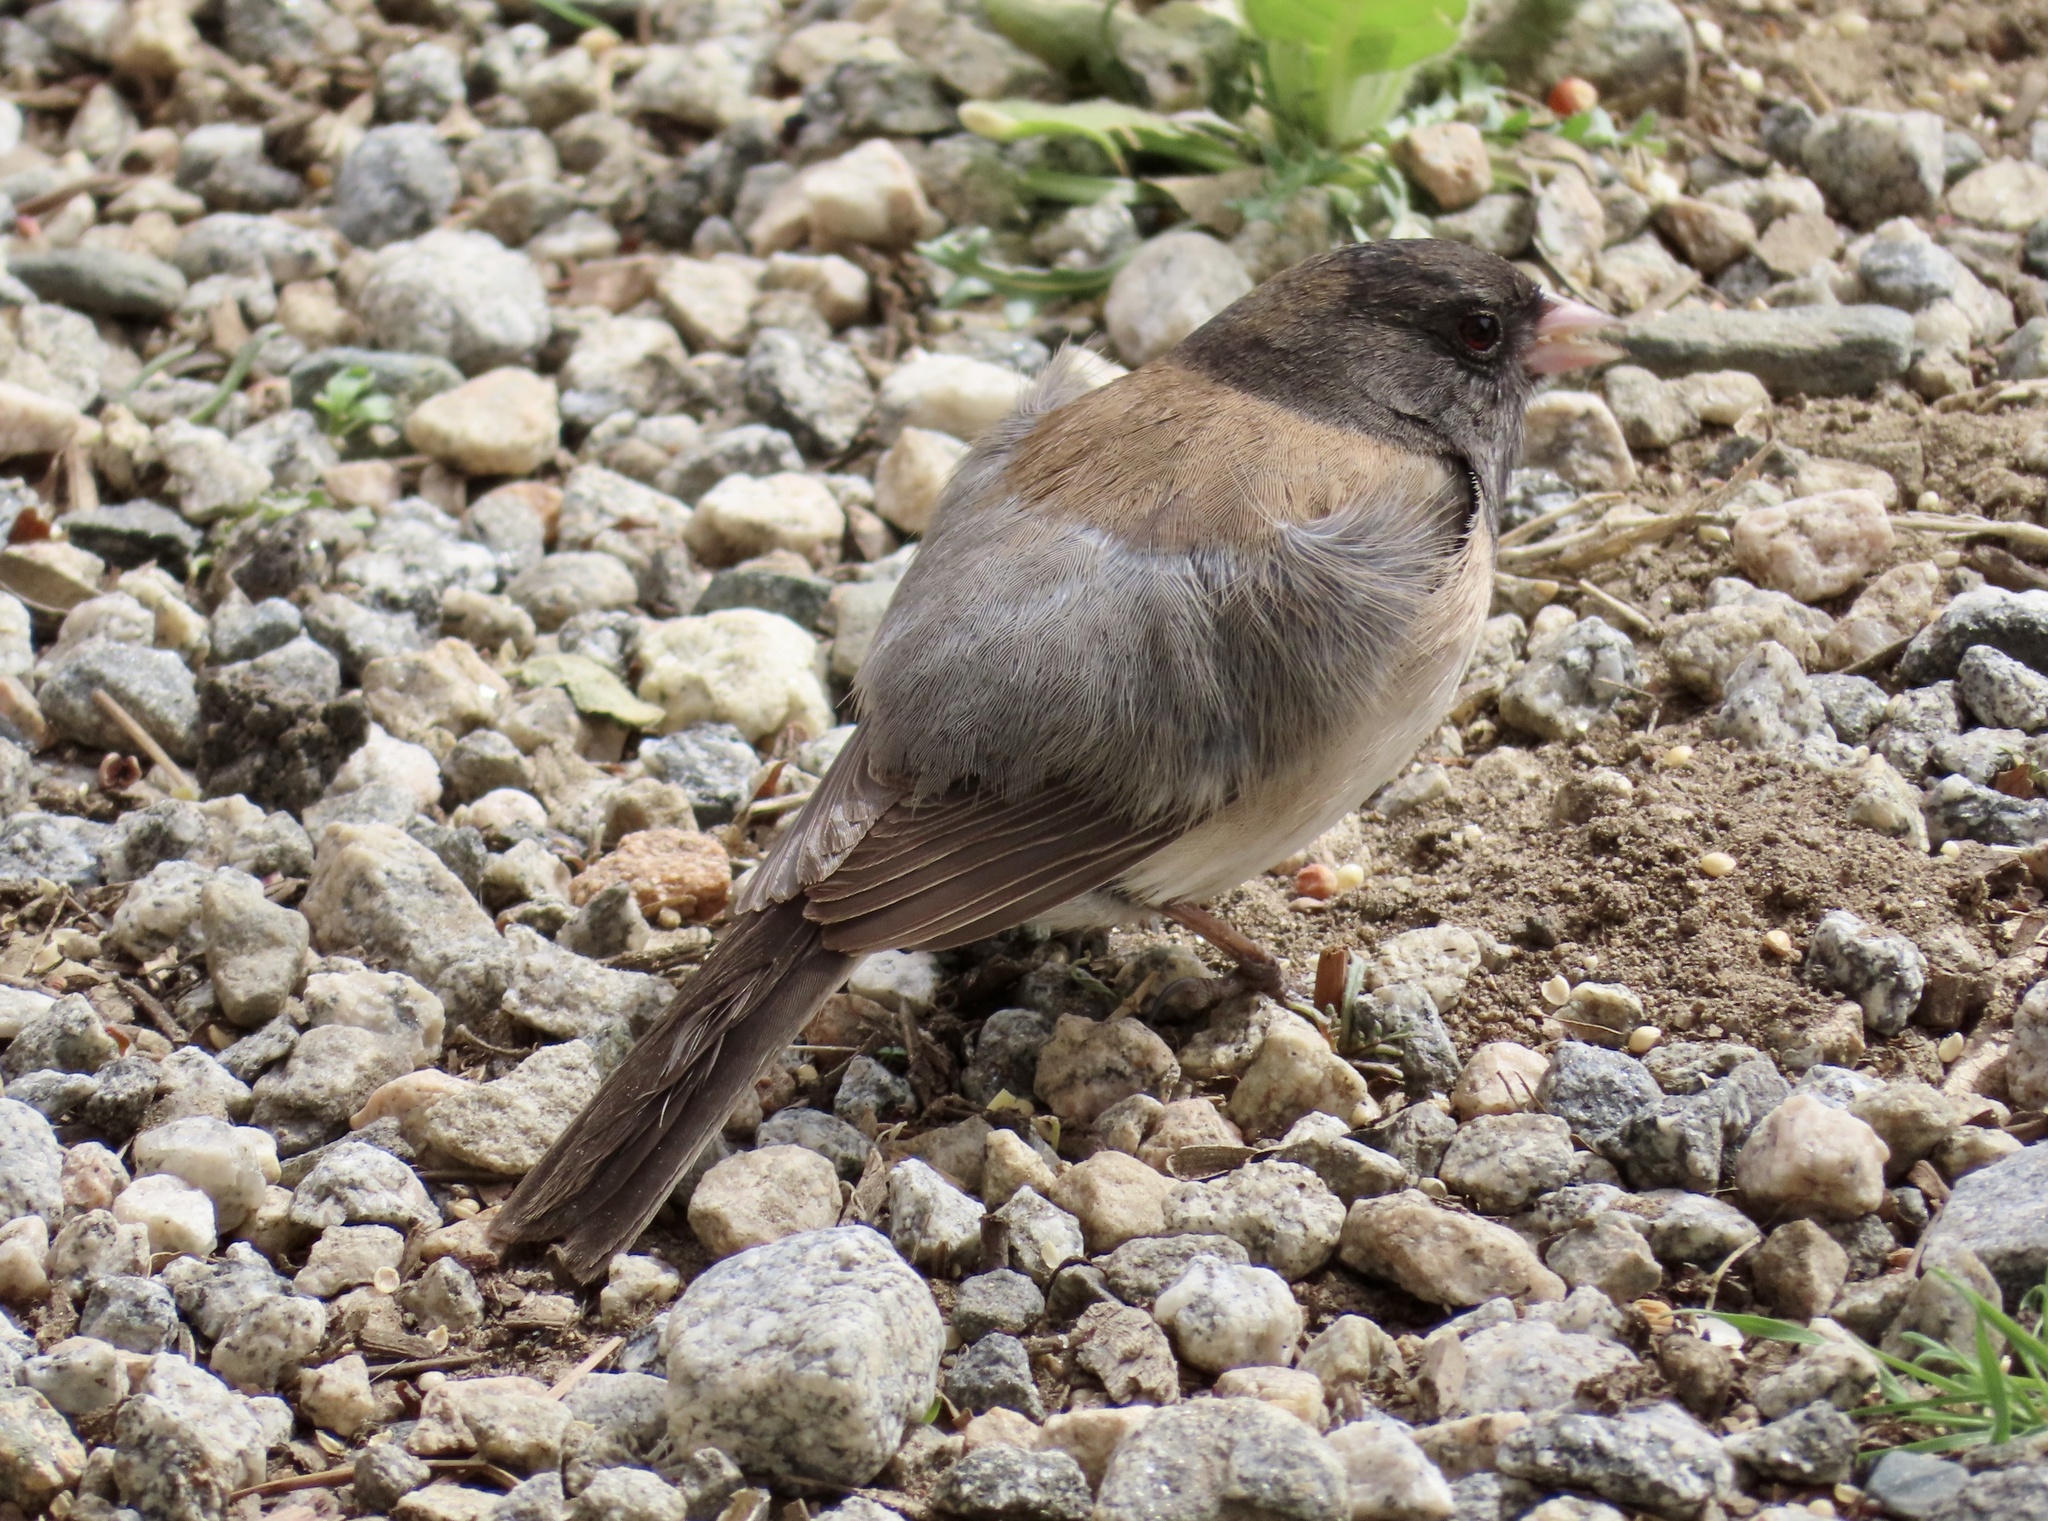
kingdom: Animalia
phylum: Chordata
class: Aves
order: Passeriformes
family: Passerellidae
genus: Junco
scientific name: Junco hyemalis
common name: Dark-eyed junco
